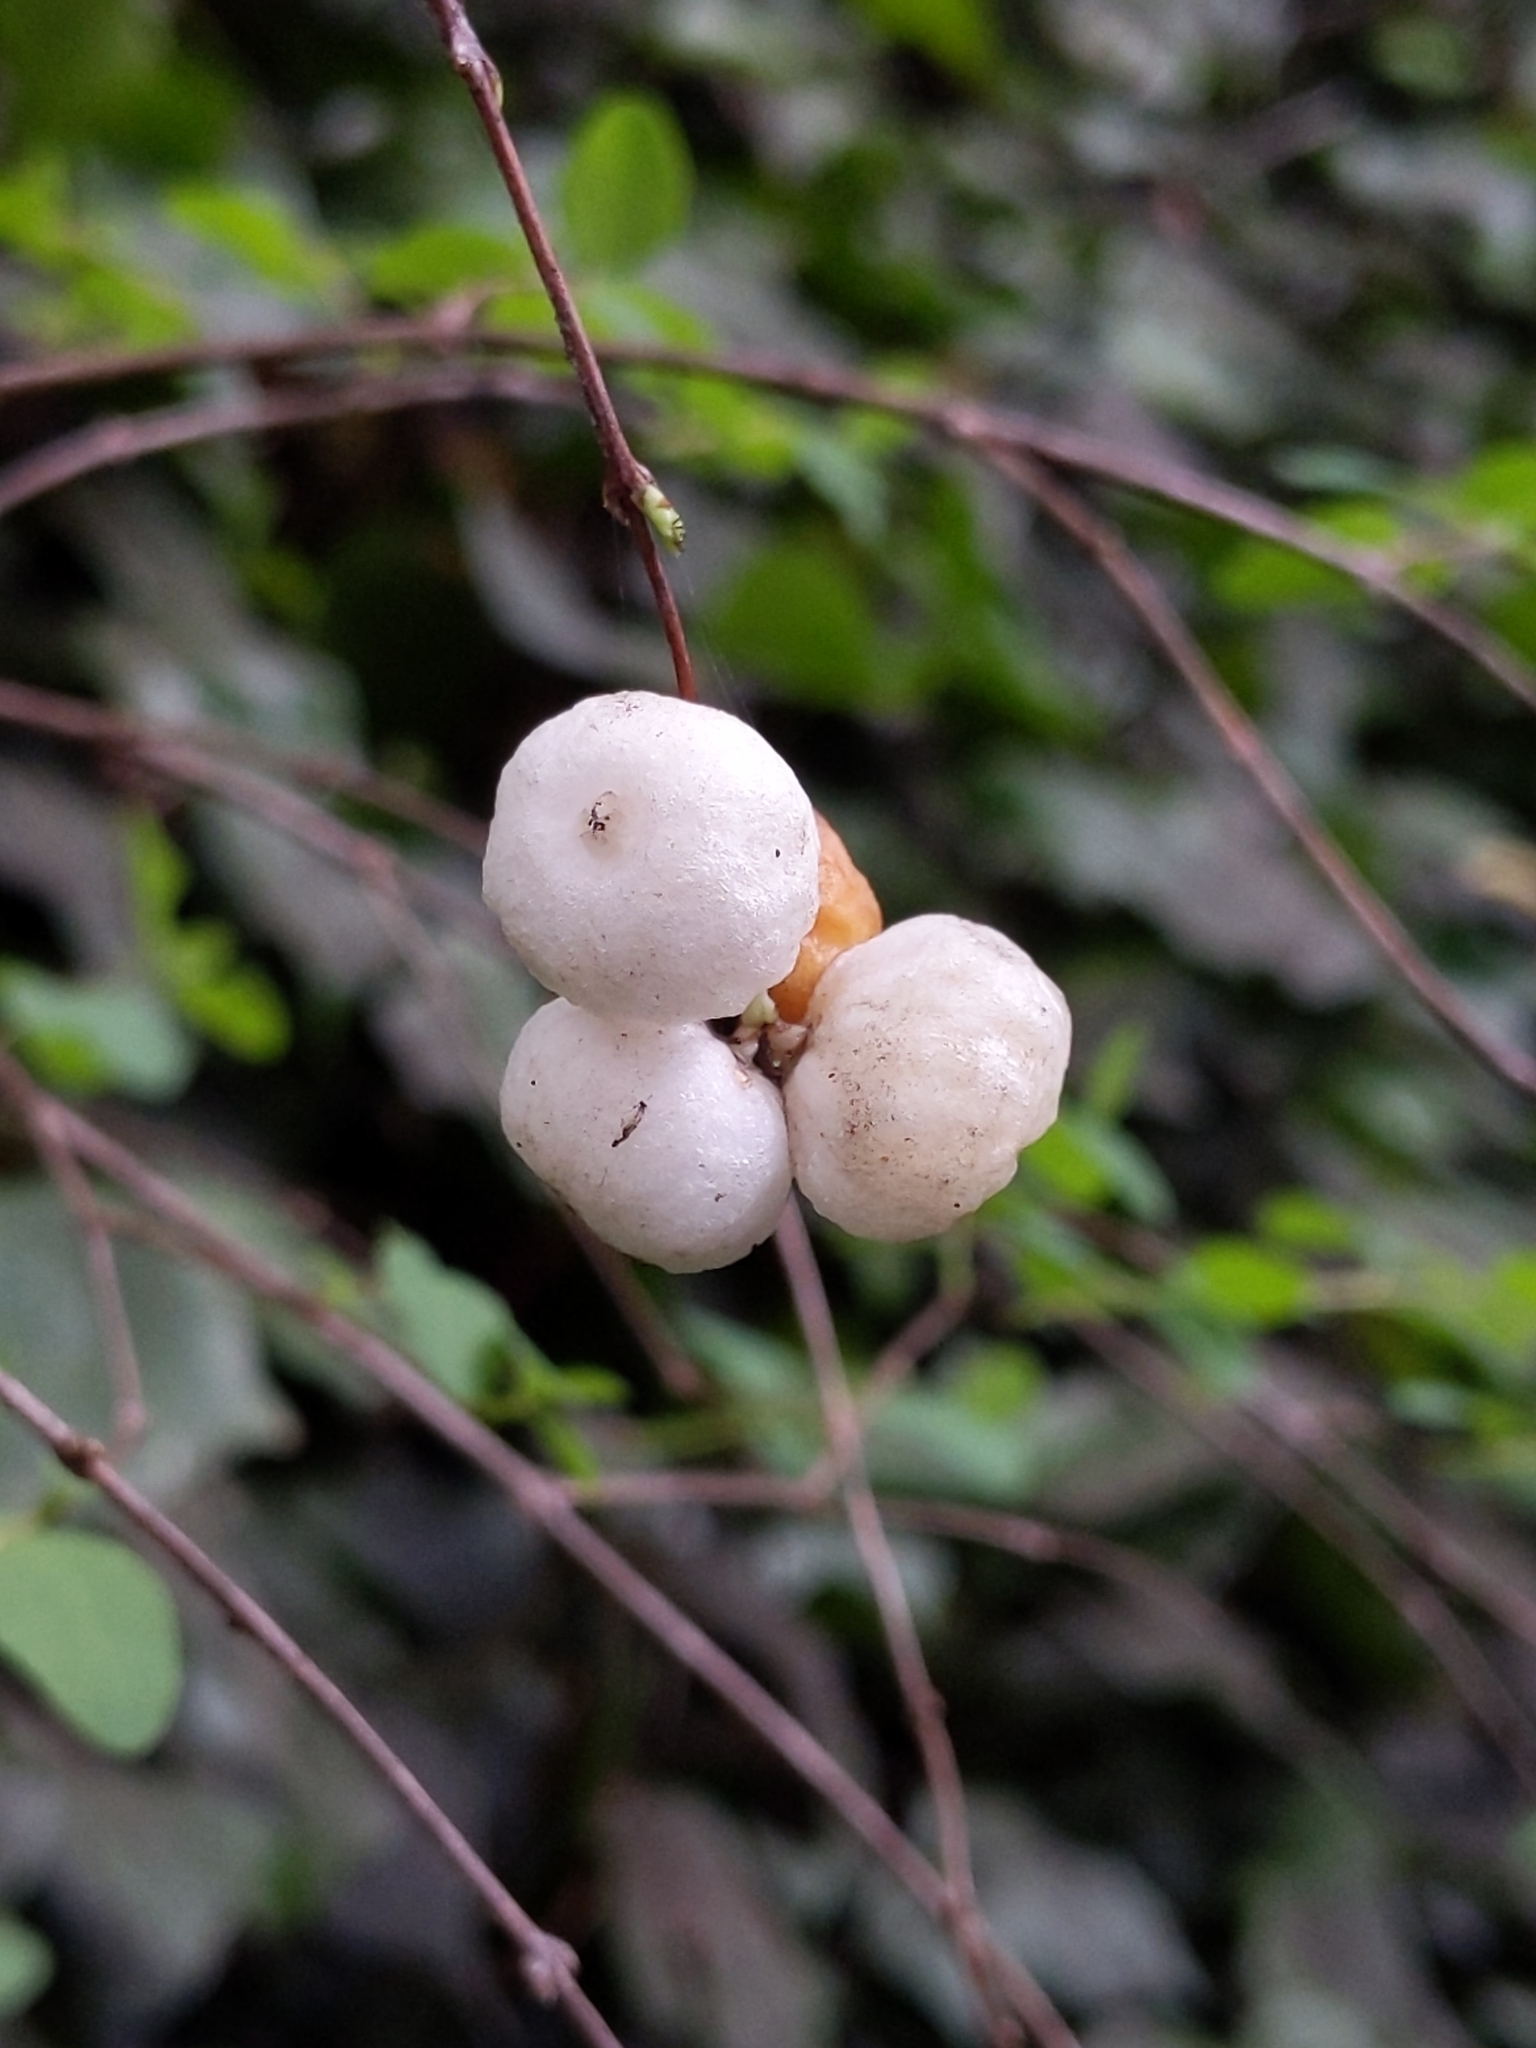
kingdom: Plantae
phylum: Tracheophyta
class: Magnoliopsida
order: Dipsacales
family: Caprifoliaceae
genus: Symphoricarpos
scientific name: Symphoricarpos albus
